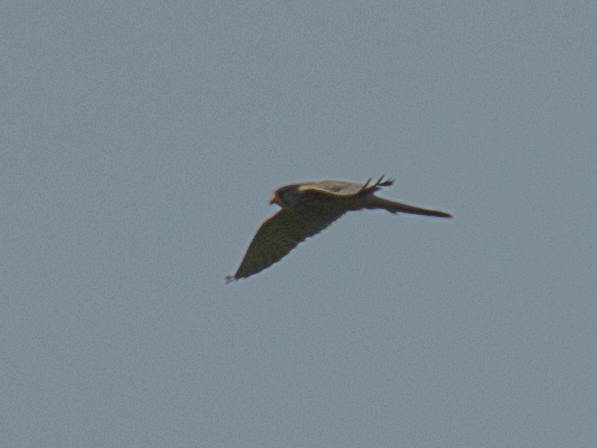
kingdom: Animalia
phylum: Chordata
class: Aves
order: Falconiformes
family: Falconidae
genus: Falco
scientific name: Falco tinnunculus
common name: Common kestrel
